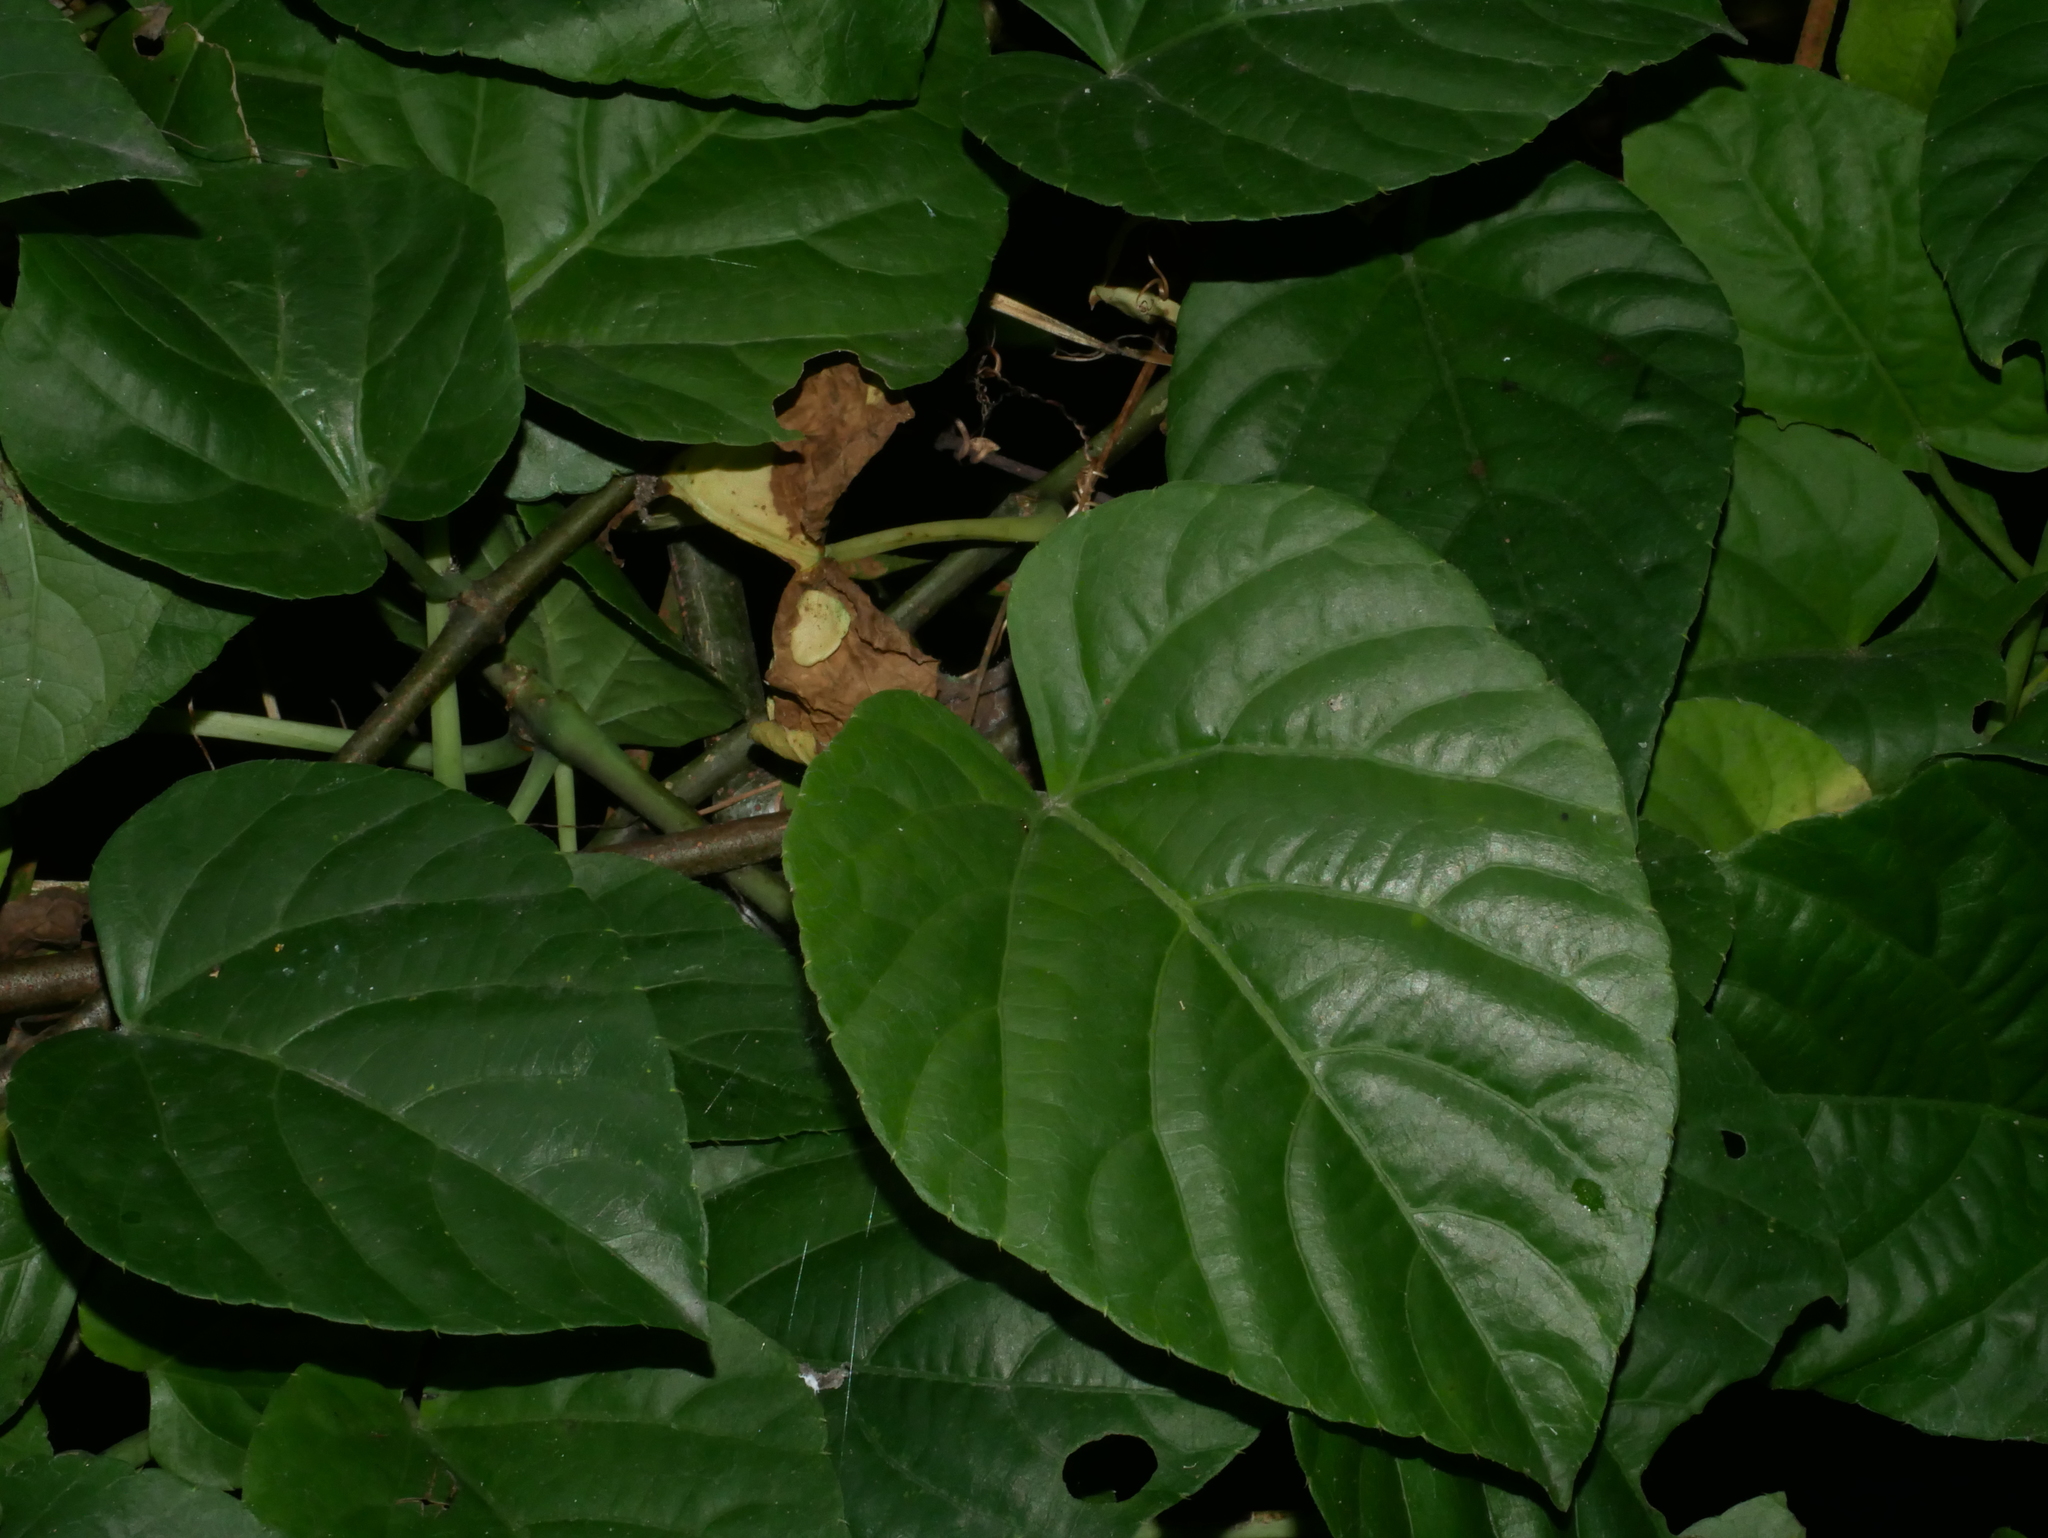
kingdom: Plantae
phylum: Tracheophyta
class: Magnoliopsida
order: Vitales
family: Vitaceae
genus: Cissus
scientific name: Cissus repens
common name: Cissus
